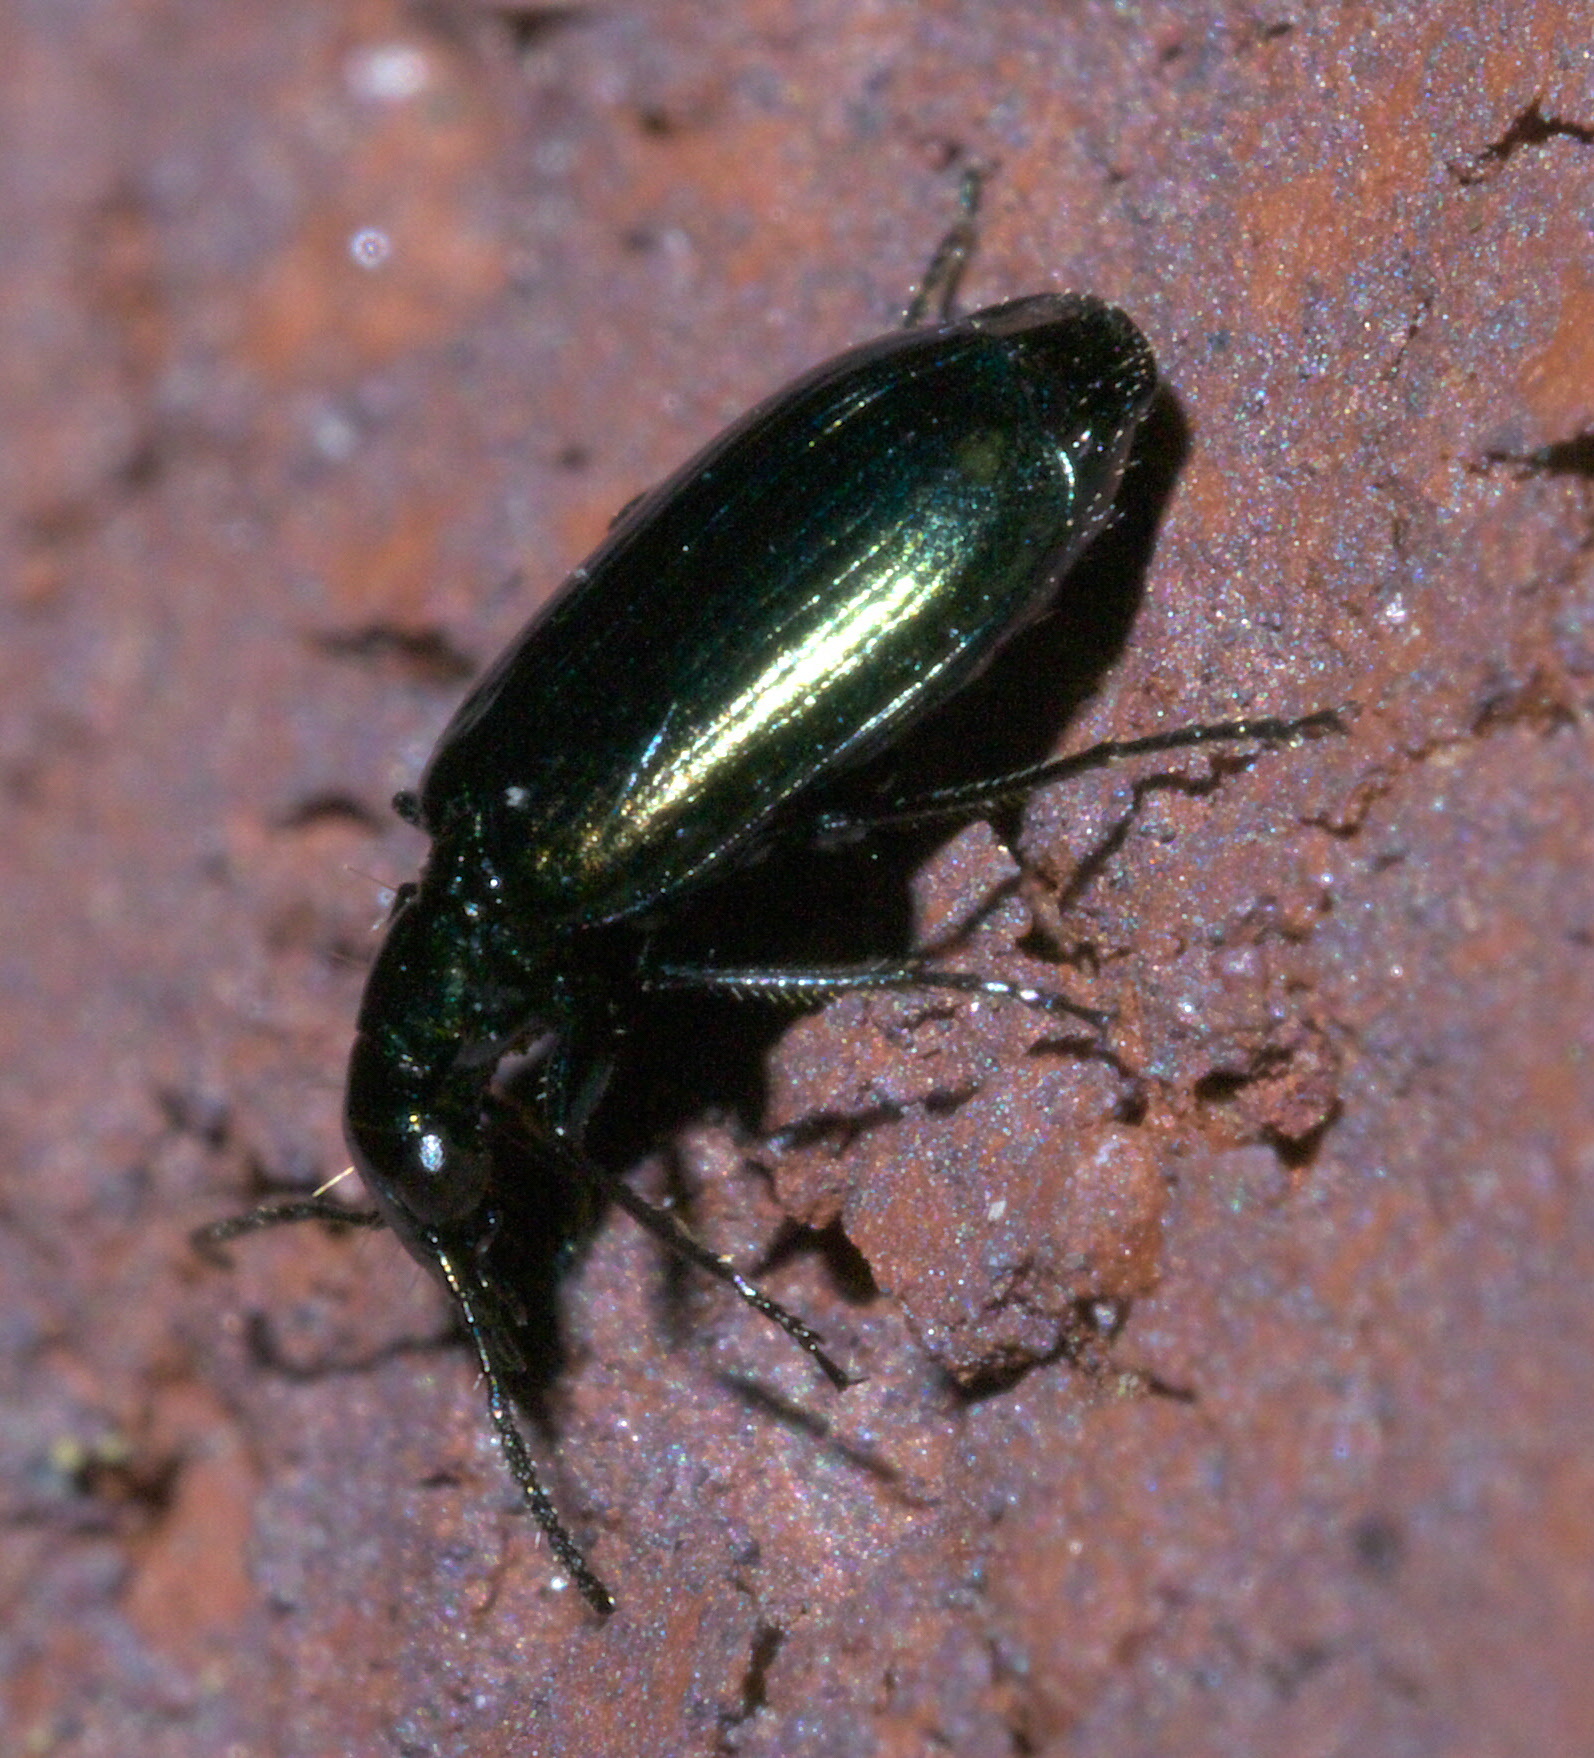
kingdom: Animalia
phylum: Arthropoda
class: Insecta
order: Coleoptera
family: Carabidae
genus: Lebia
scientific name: Lebia viridis
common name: Flower lebia beetle
